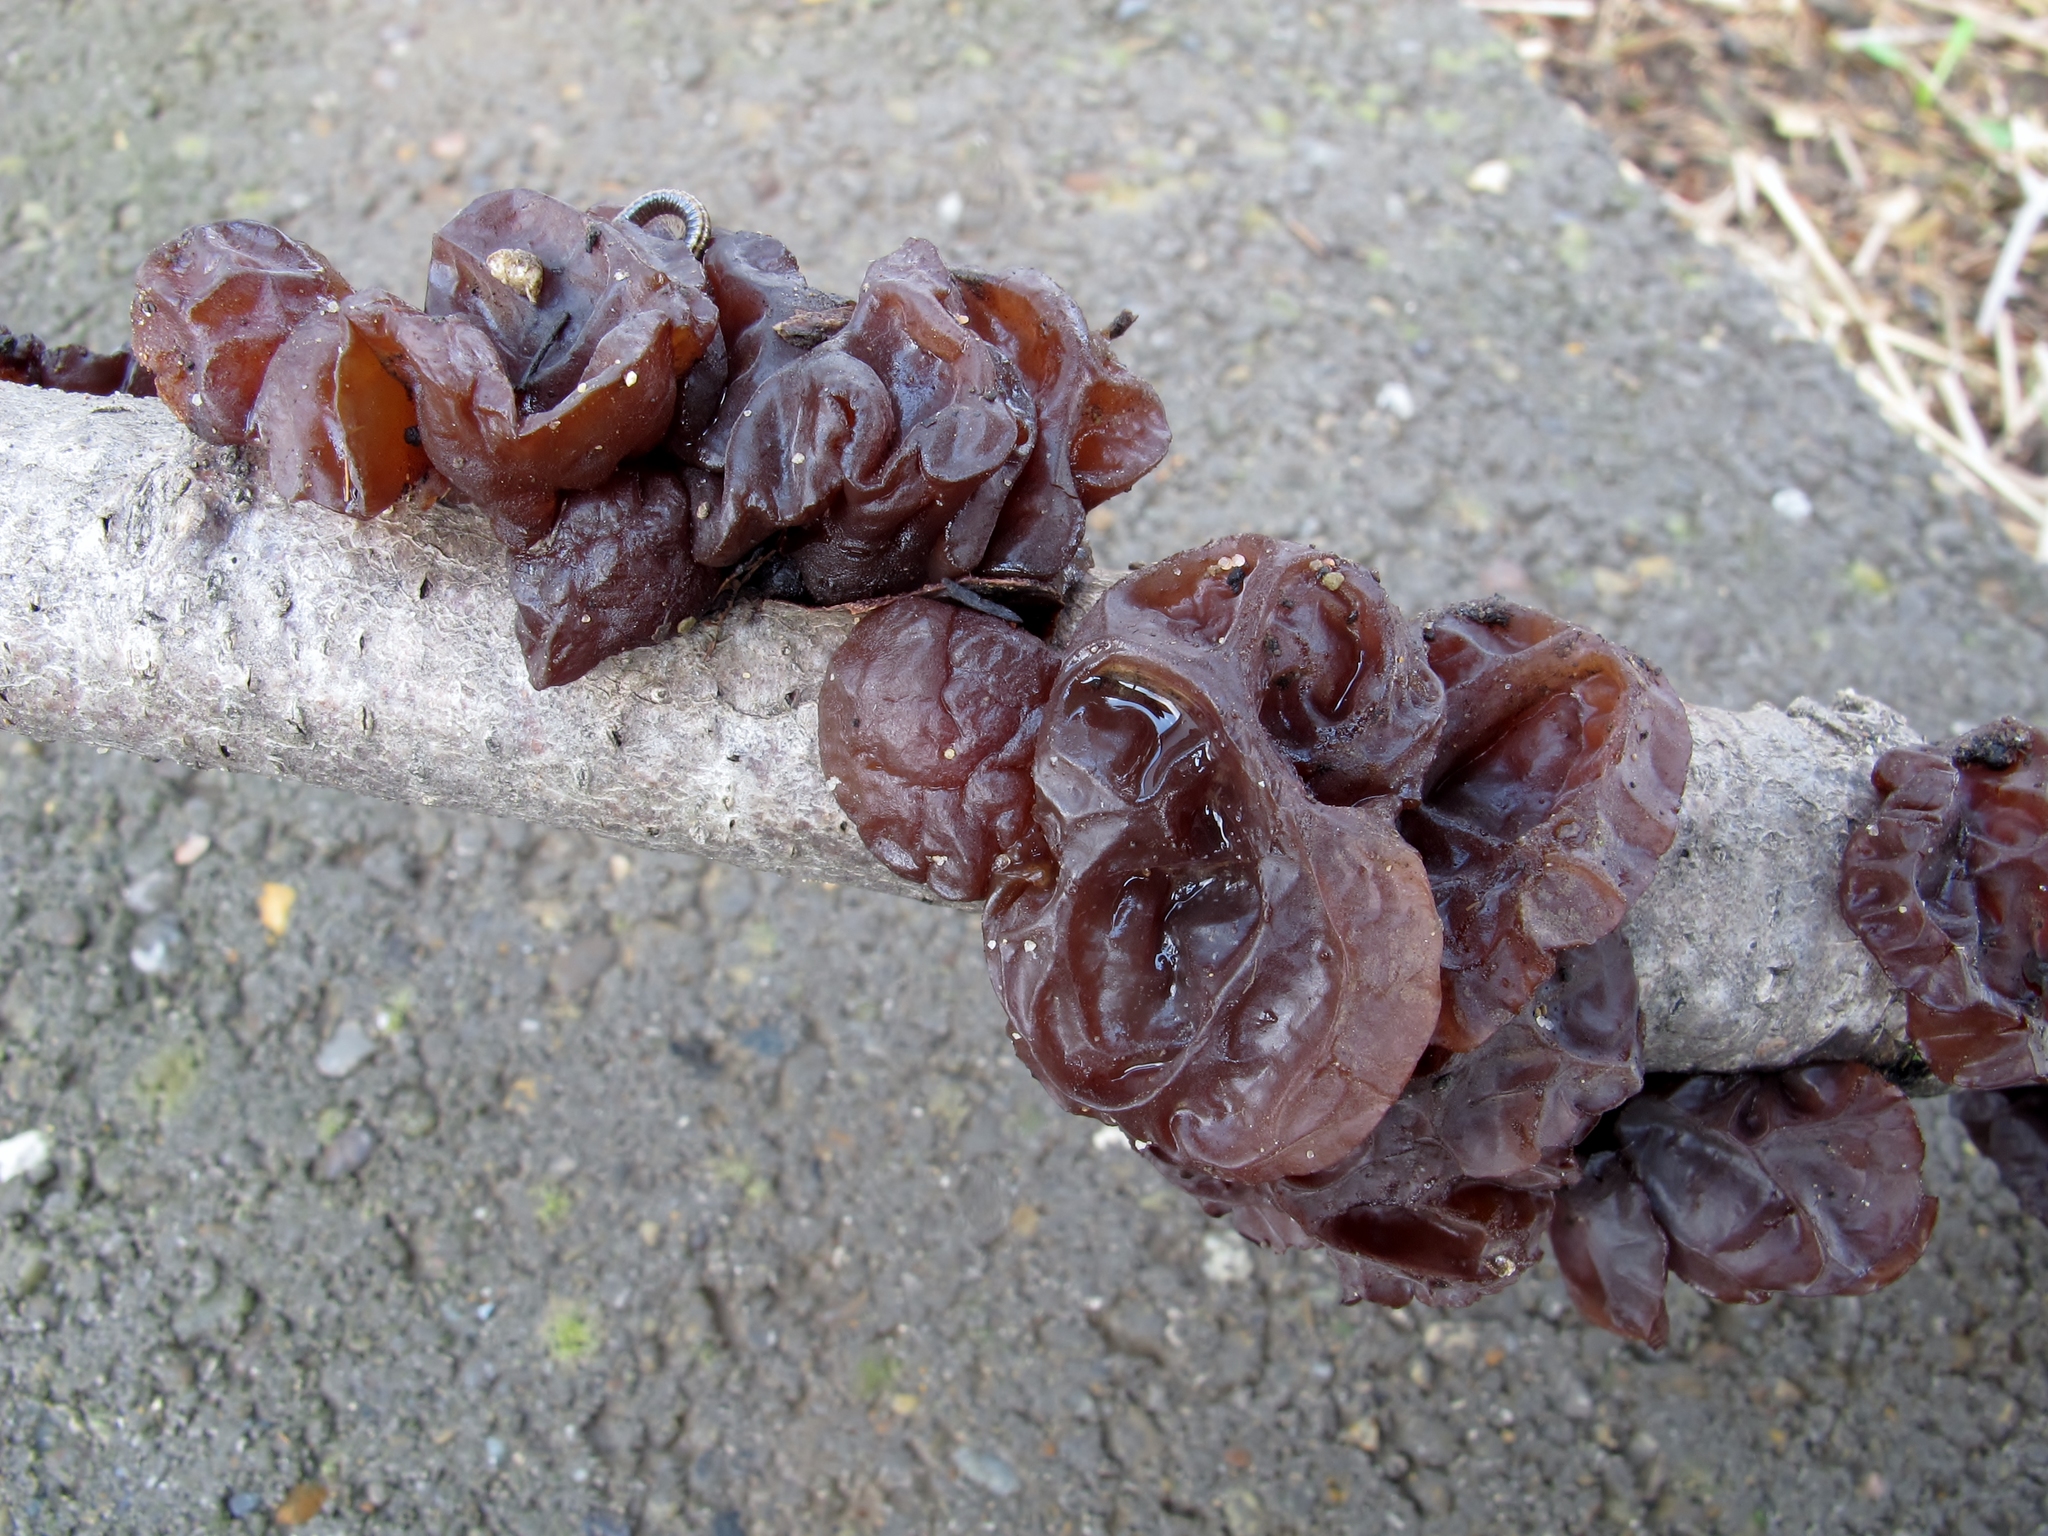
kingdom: Fungi
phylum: Basidiomycota
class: Agaricomycetes
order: Auriculariales
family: Auriculariaceae
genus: Exidia
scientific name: Exidia
